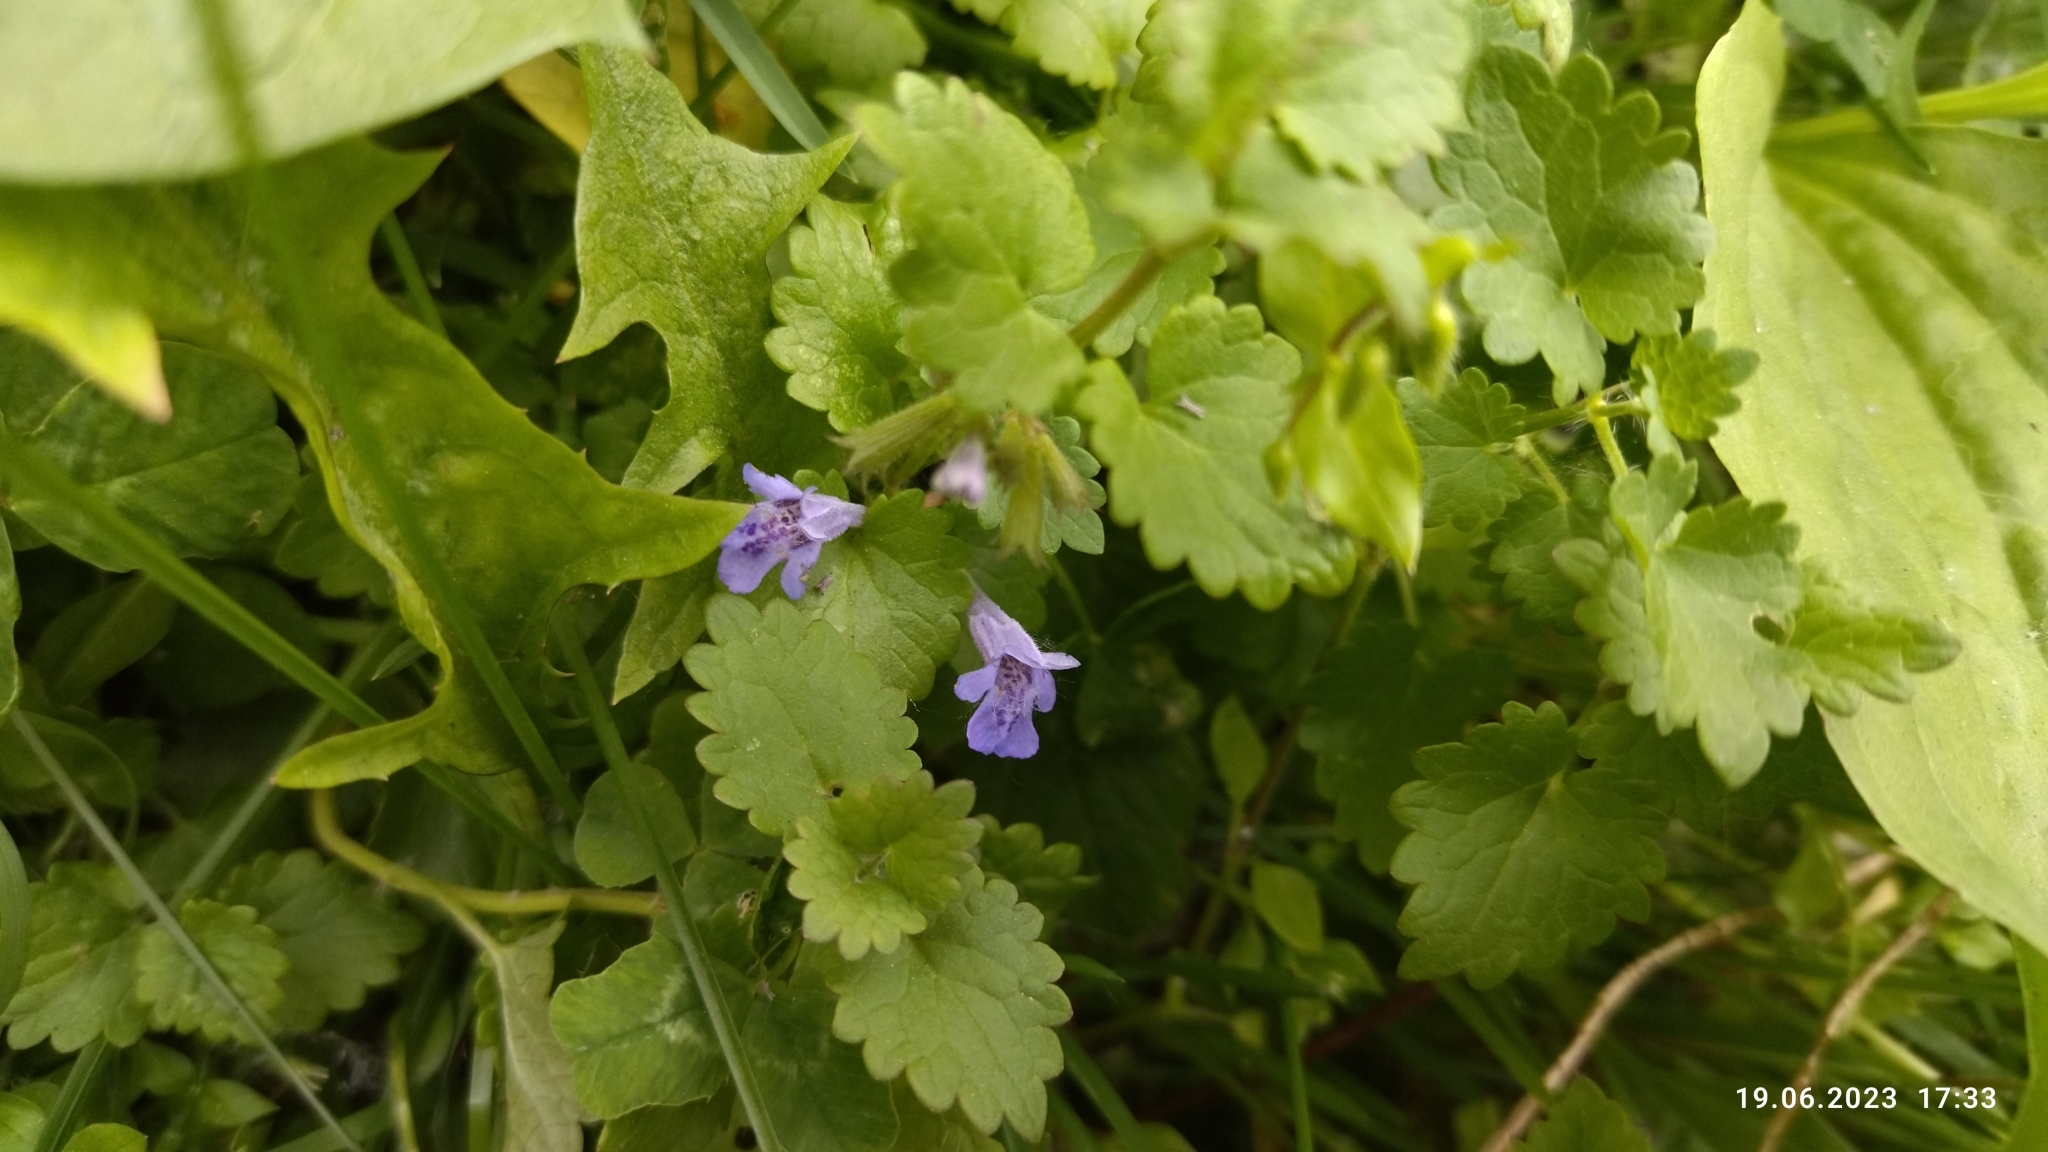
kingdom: Plantae
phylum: Tracheophyta
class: Magnoliopsida
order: Lamiales
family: Lamiaceae
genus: Glechoma
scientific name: Glechoma hederacea
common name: Ground ivy
